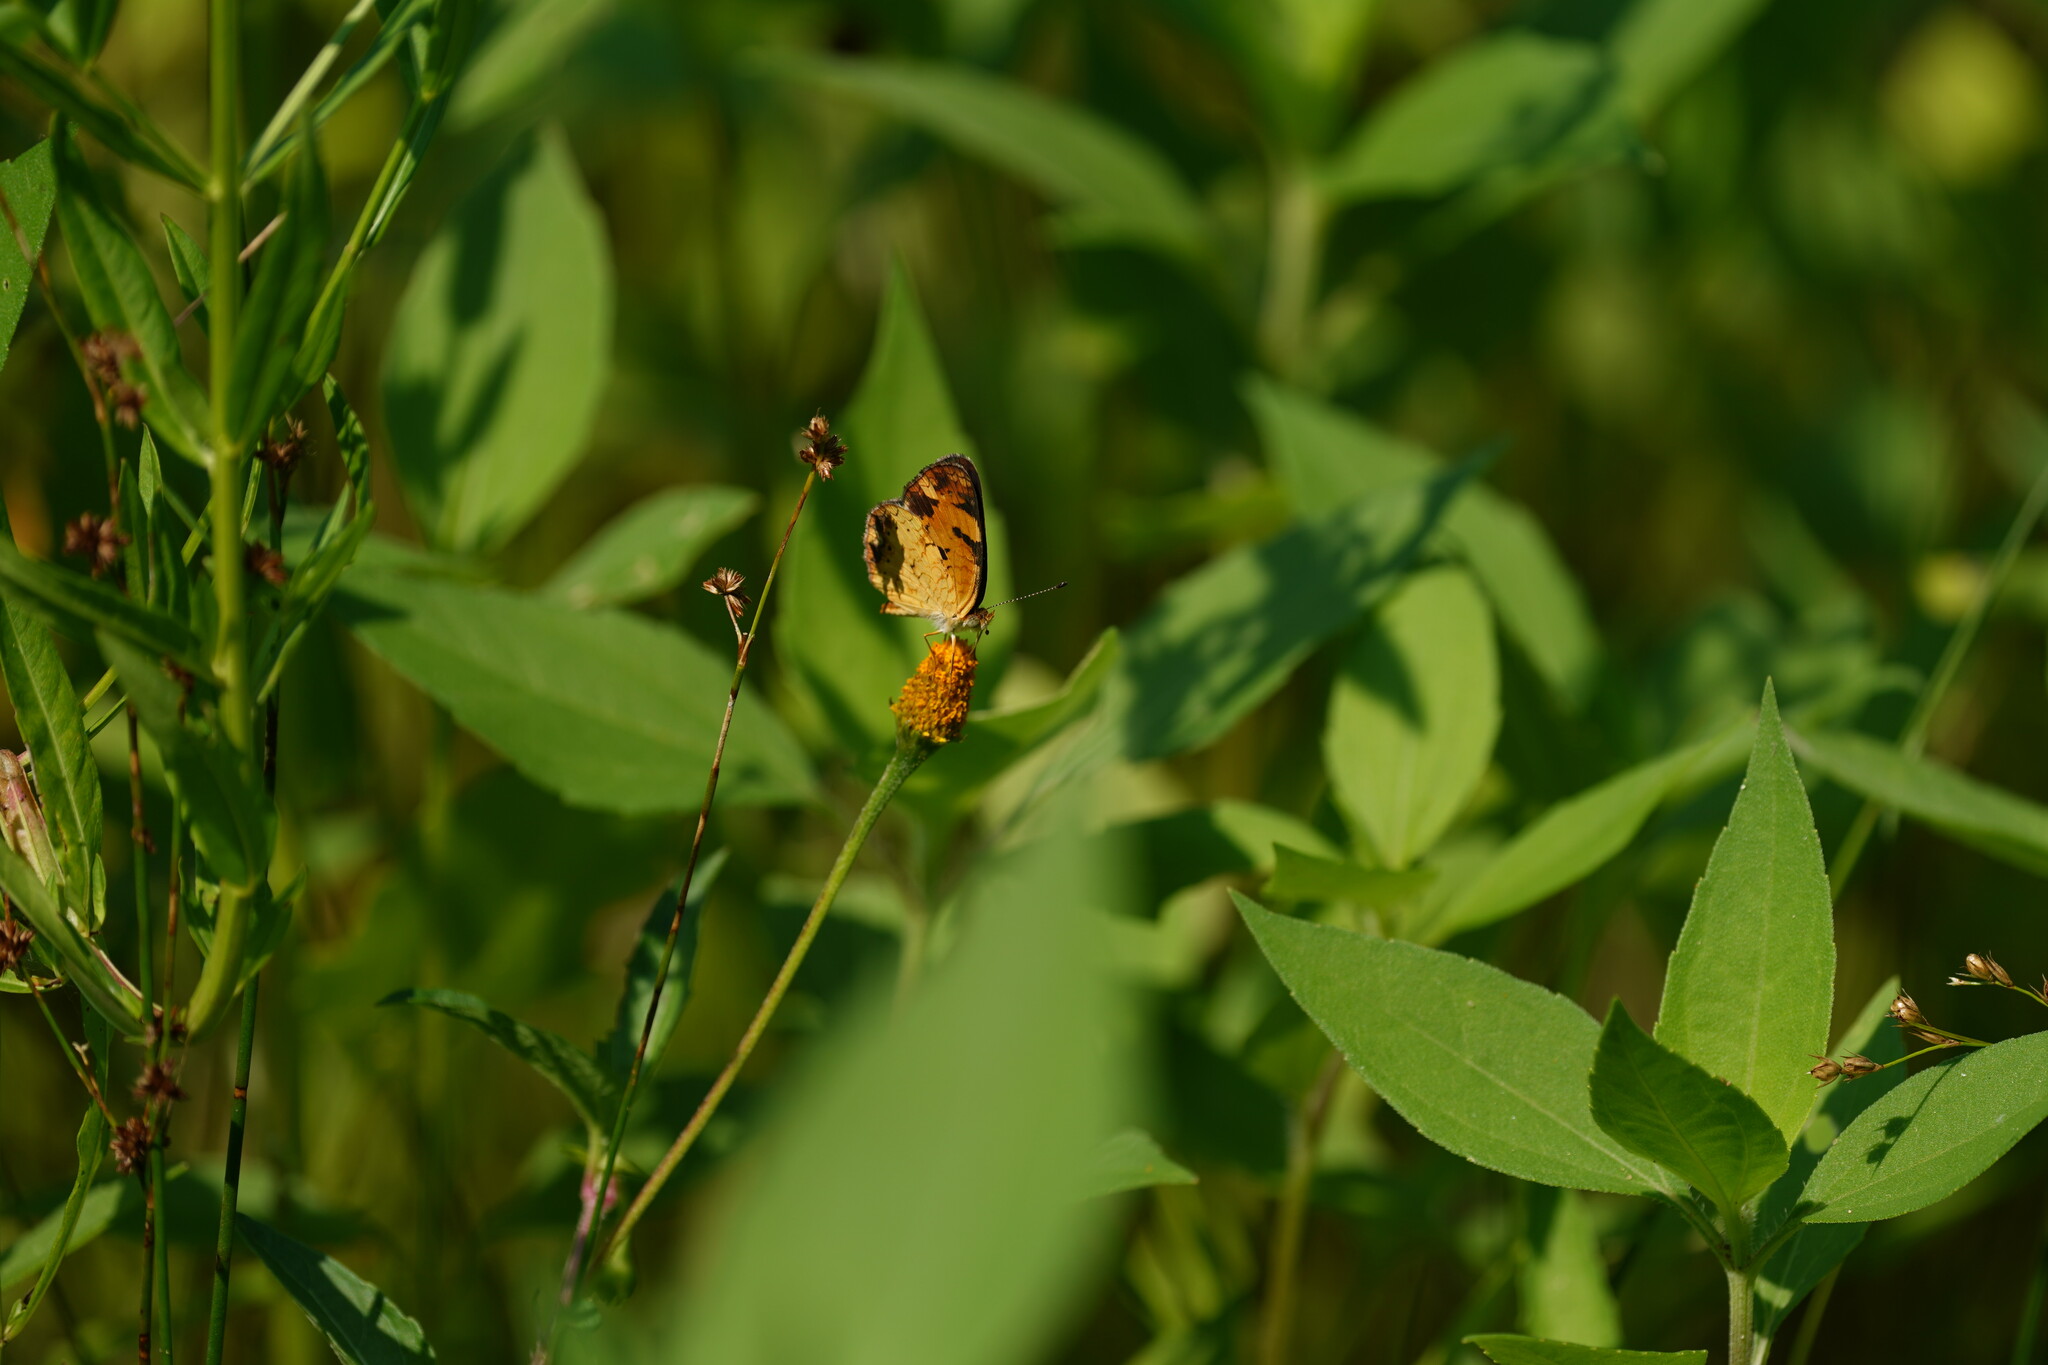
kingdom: Animalia
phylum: Arthropoda
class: Insecta
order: Lepidoptera
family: Nymphalidae
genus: Phyciodes
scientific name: Phyciodes tharos
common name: Pearl crescent
